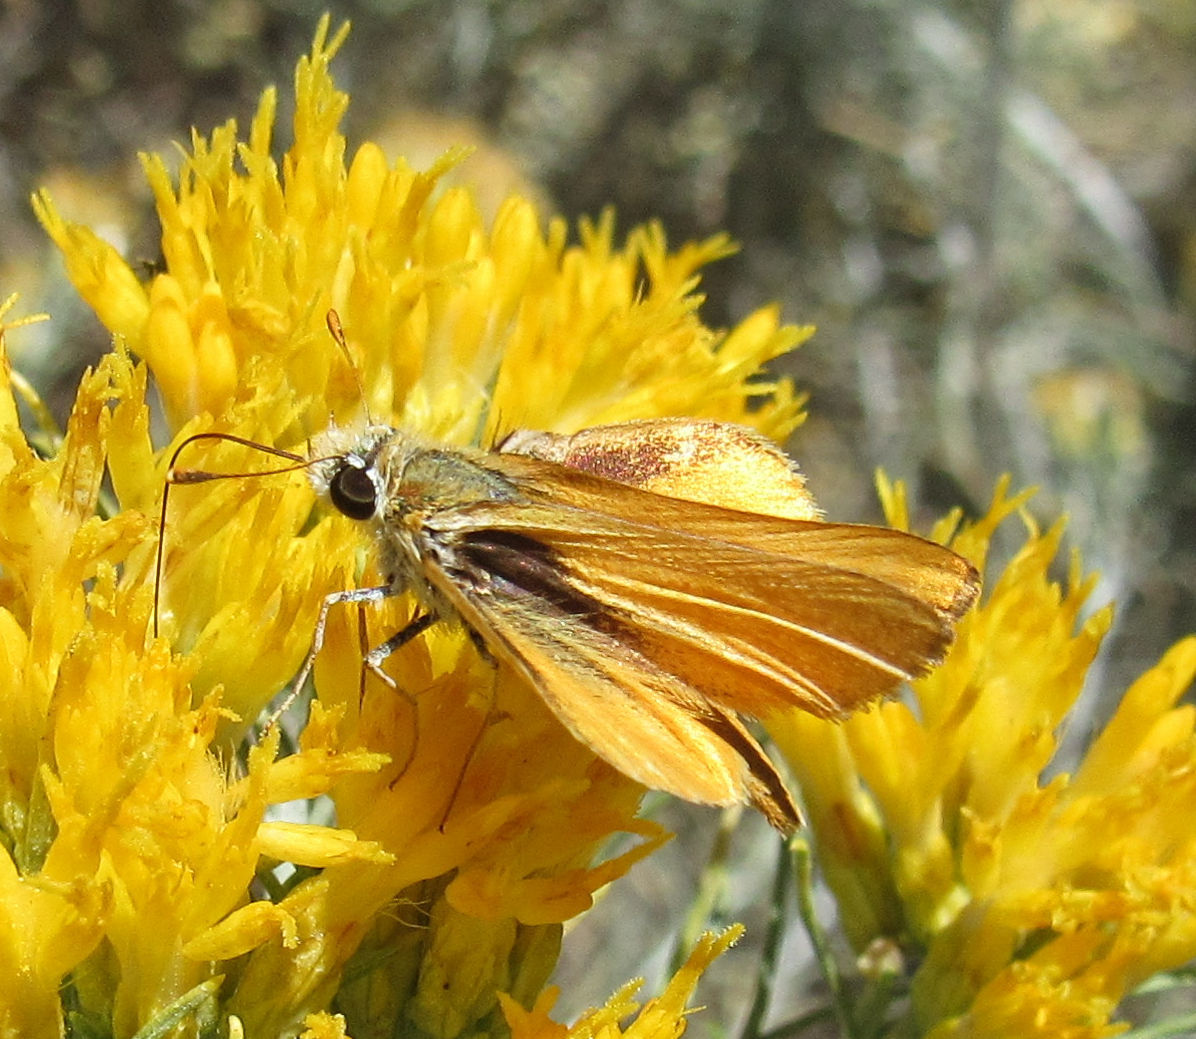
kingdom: Animalia
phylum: Arthropoda
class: Insecta
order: Lepidoptera
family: Hesperiidae
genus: Copaeodes
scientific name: Copaeodes aurantiaca
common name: Orange skipperling
